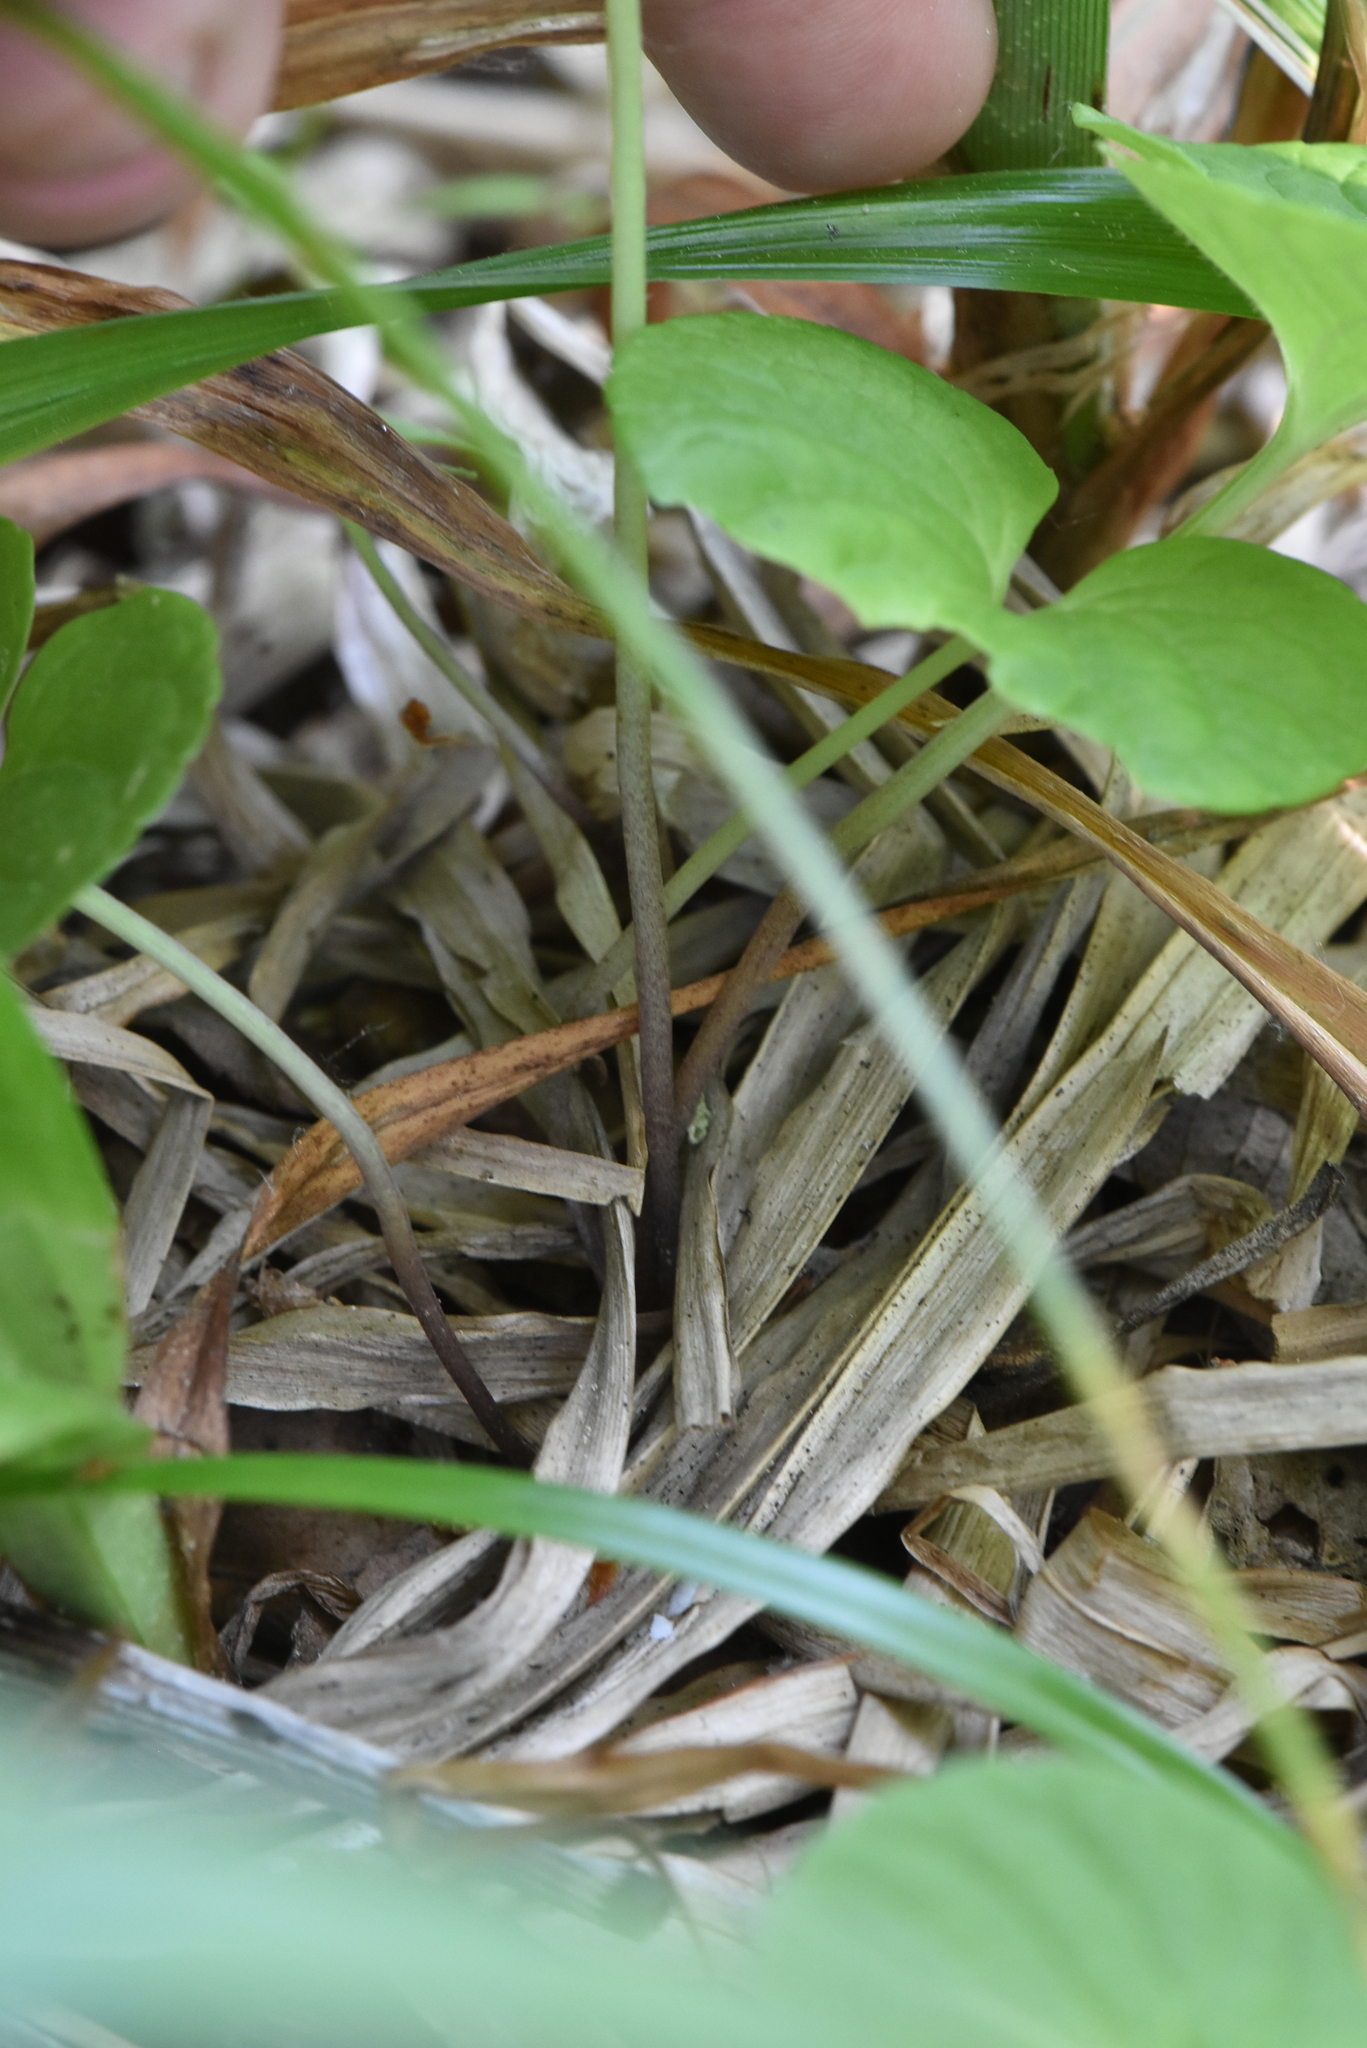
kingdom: Plantae
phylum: Tracheophyta
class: Magnoliopsida
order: Malpighiales
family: Violaceae
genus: Viola
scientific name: Viola epipsila
